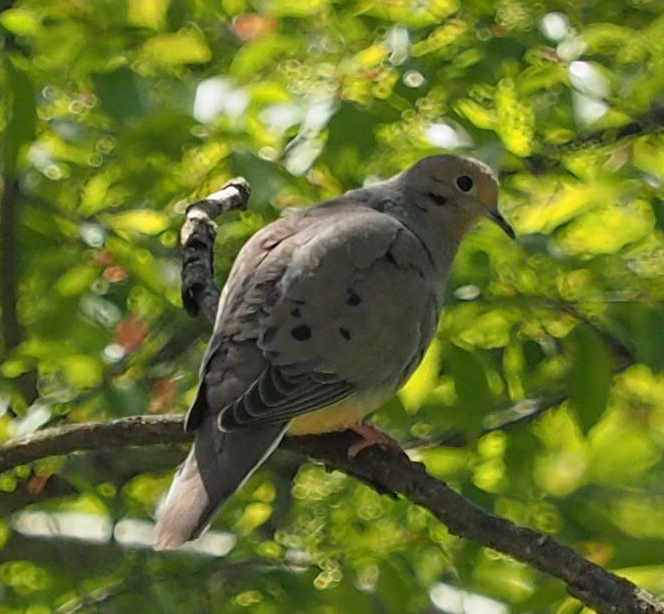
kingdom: Animalia
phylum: Chordata
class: Aves
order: Columbiformes
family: Columbidae
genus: Zenaida
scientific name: Zenaida macroura
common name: Mourning dove
